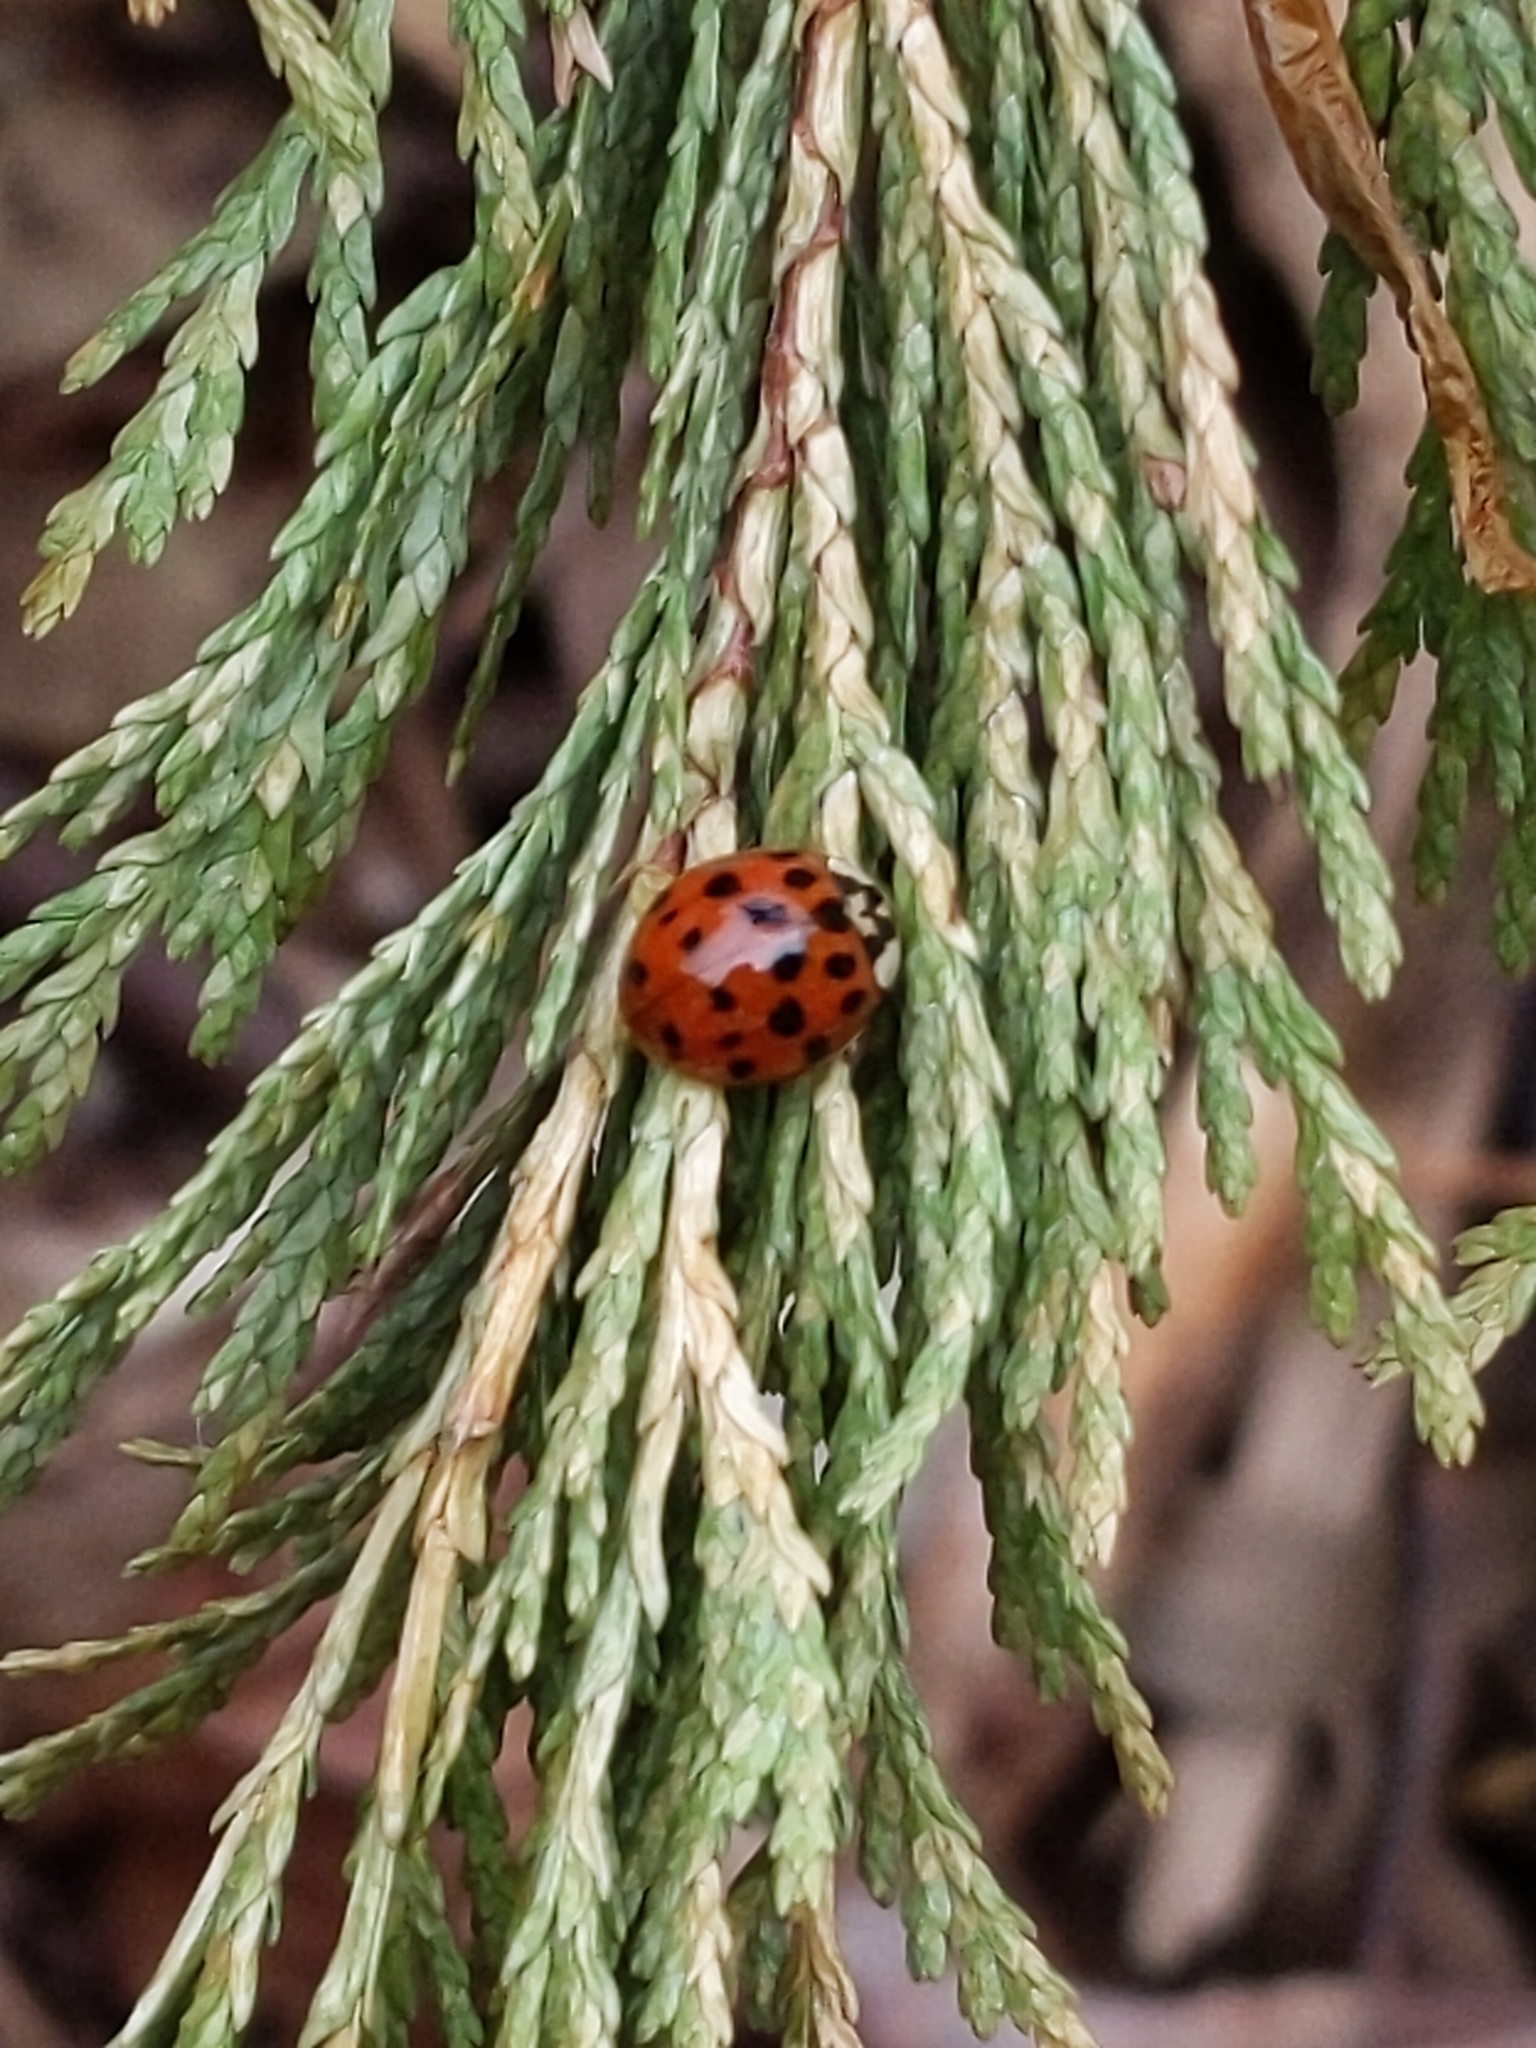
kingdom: Animalia
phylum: Arthropoda
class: Insecta
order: Coleoptera
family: Coccinellidae
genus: Harmonia
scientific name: Harmonia axyridis
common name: Harlequin ladybird
